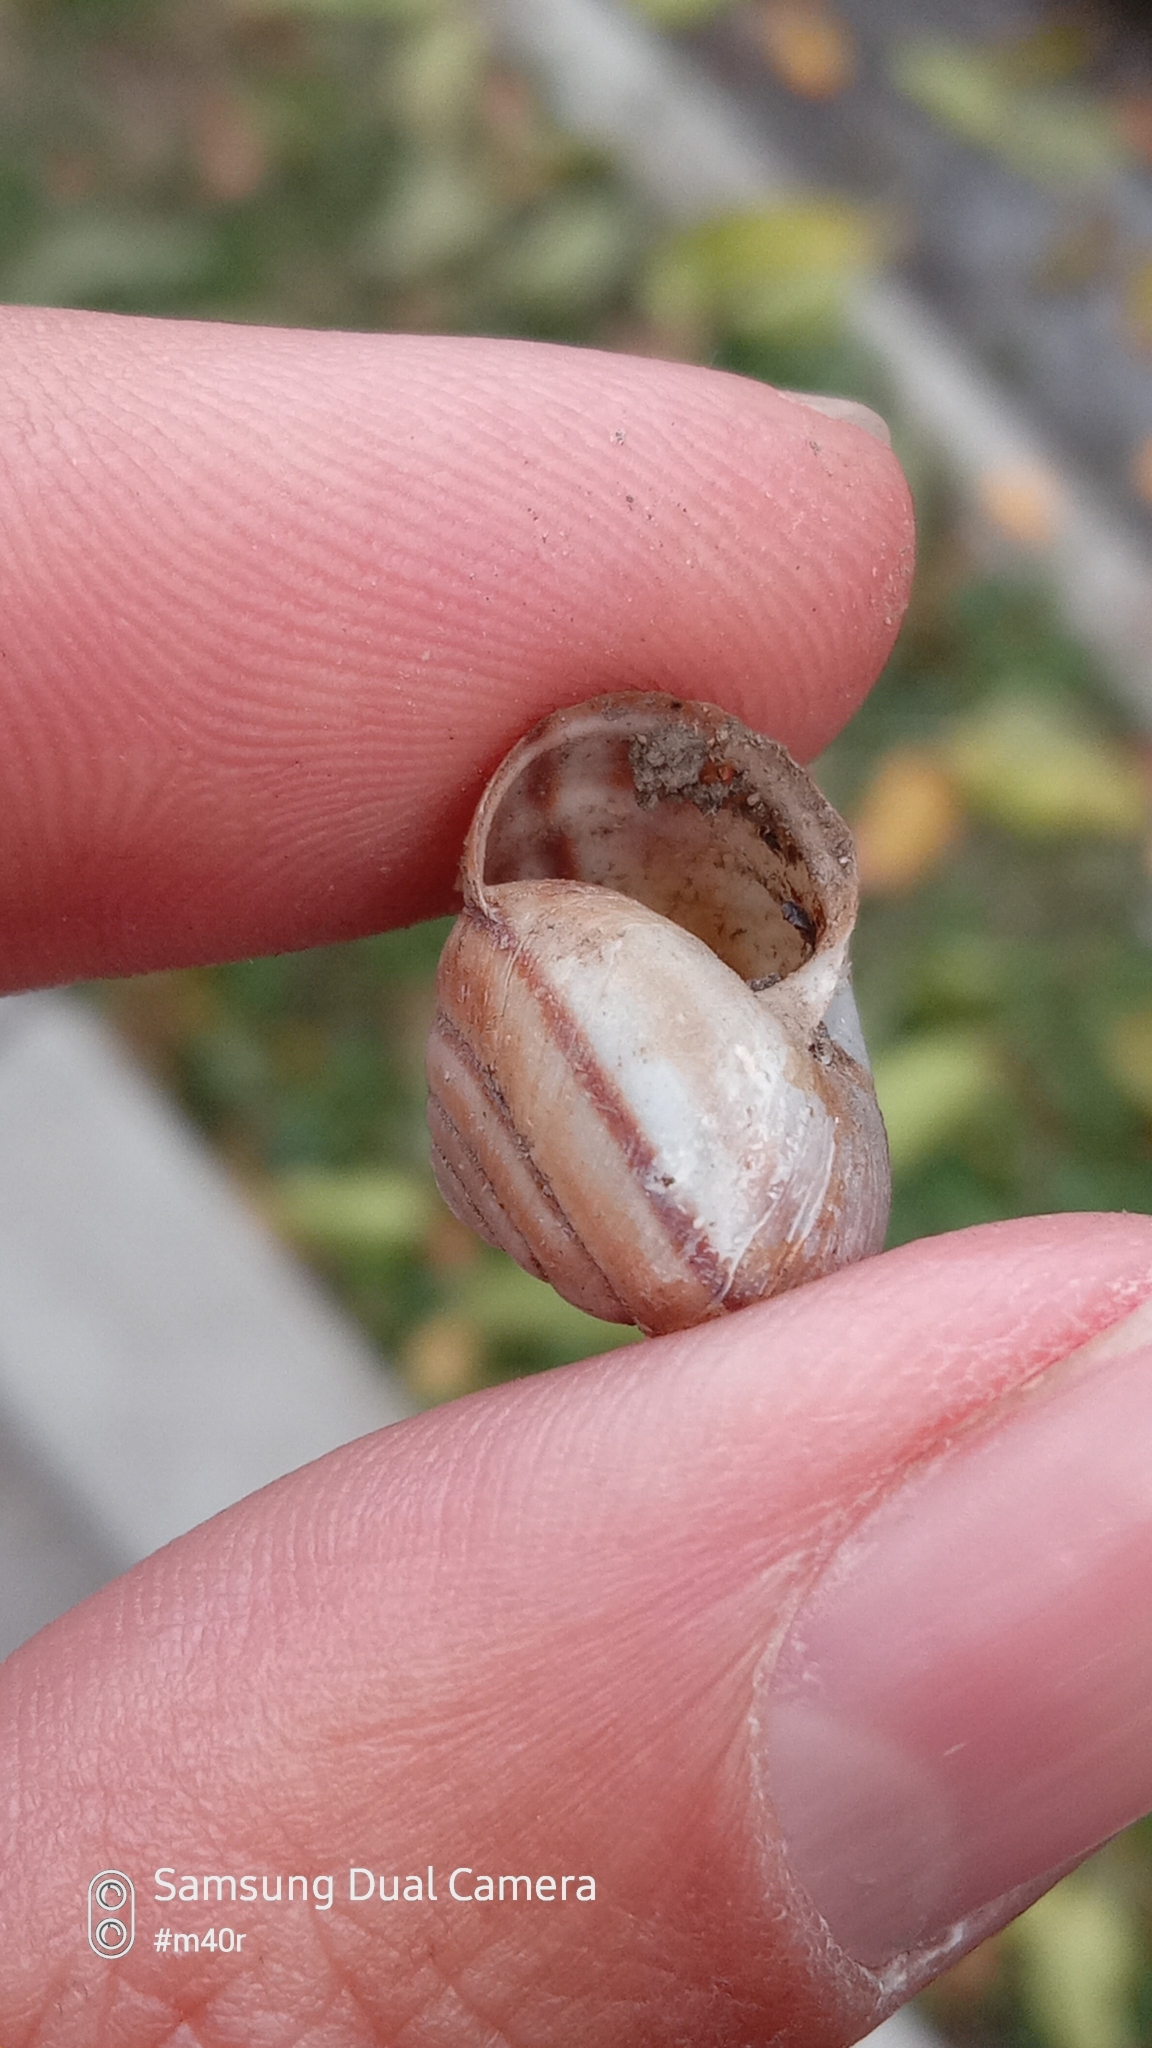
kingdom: Animalia
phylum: Mollusca
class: Gastropoda
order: Stylommatophora
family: Camaenidae
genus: Fruticicola
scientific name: Fruticicola lantzi
